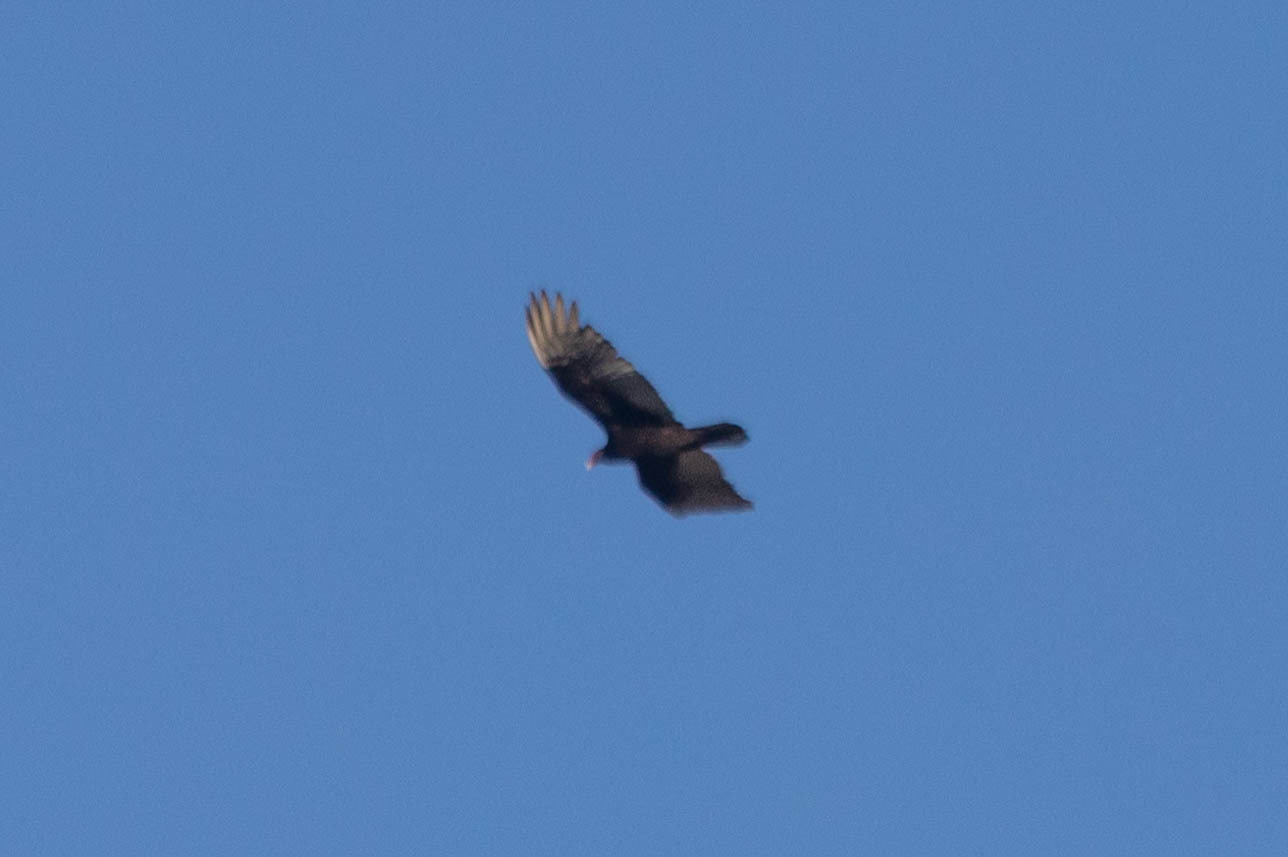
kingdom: Animalia
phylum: Chordata
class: Aves
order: Accipitriformes
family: Cathartidae
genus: Cathartes
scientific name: Cathartes aura
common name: Turkey vulture
